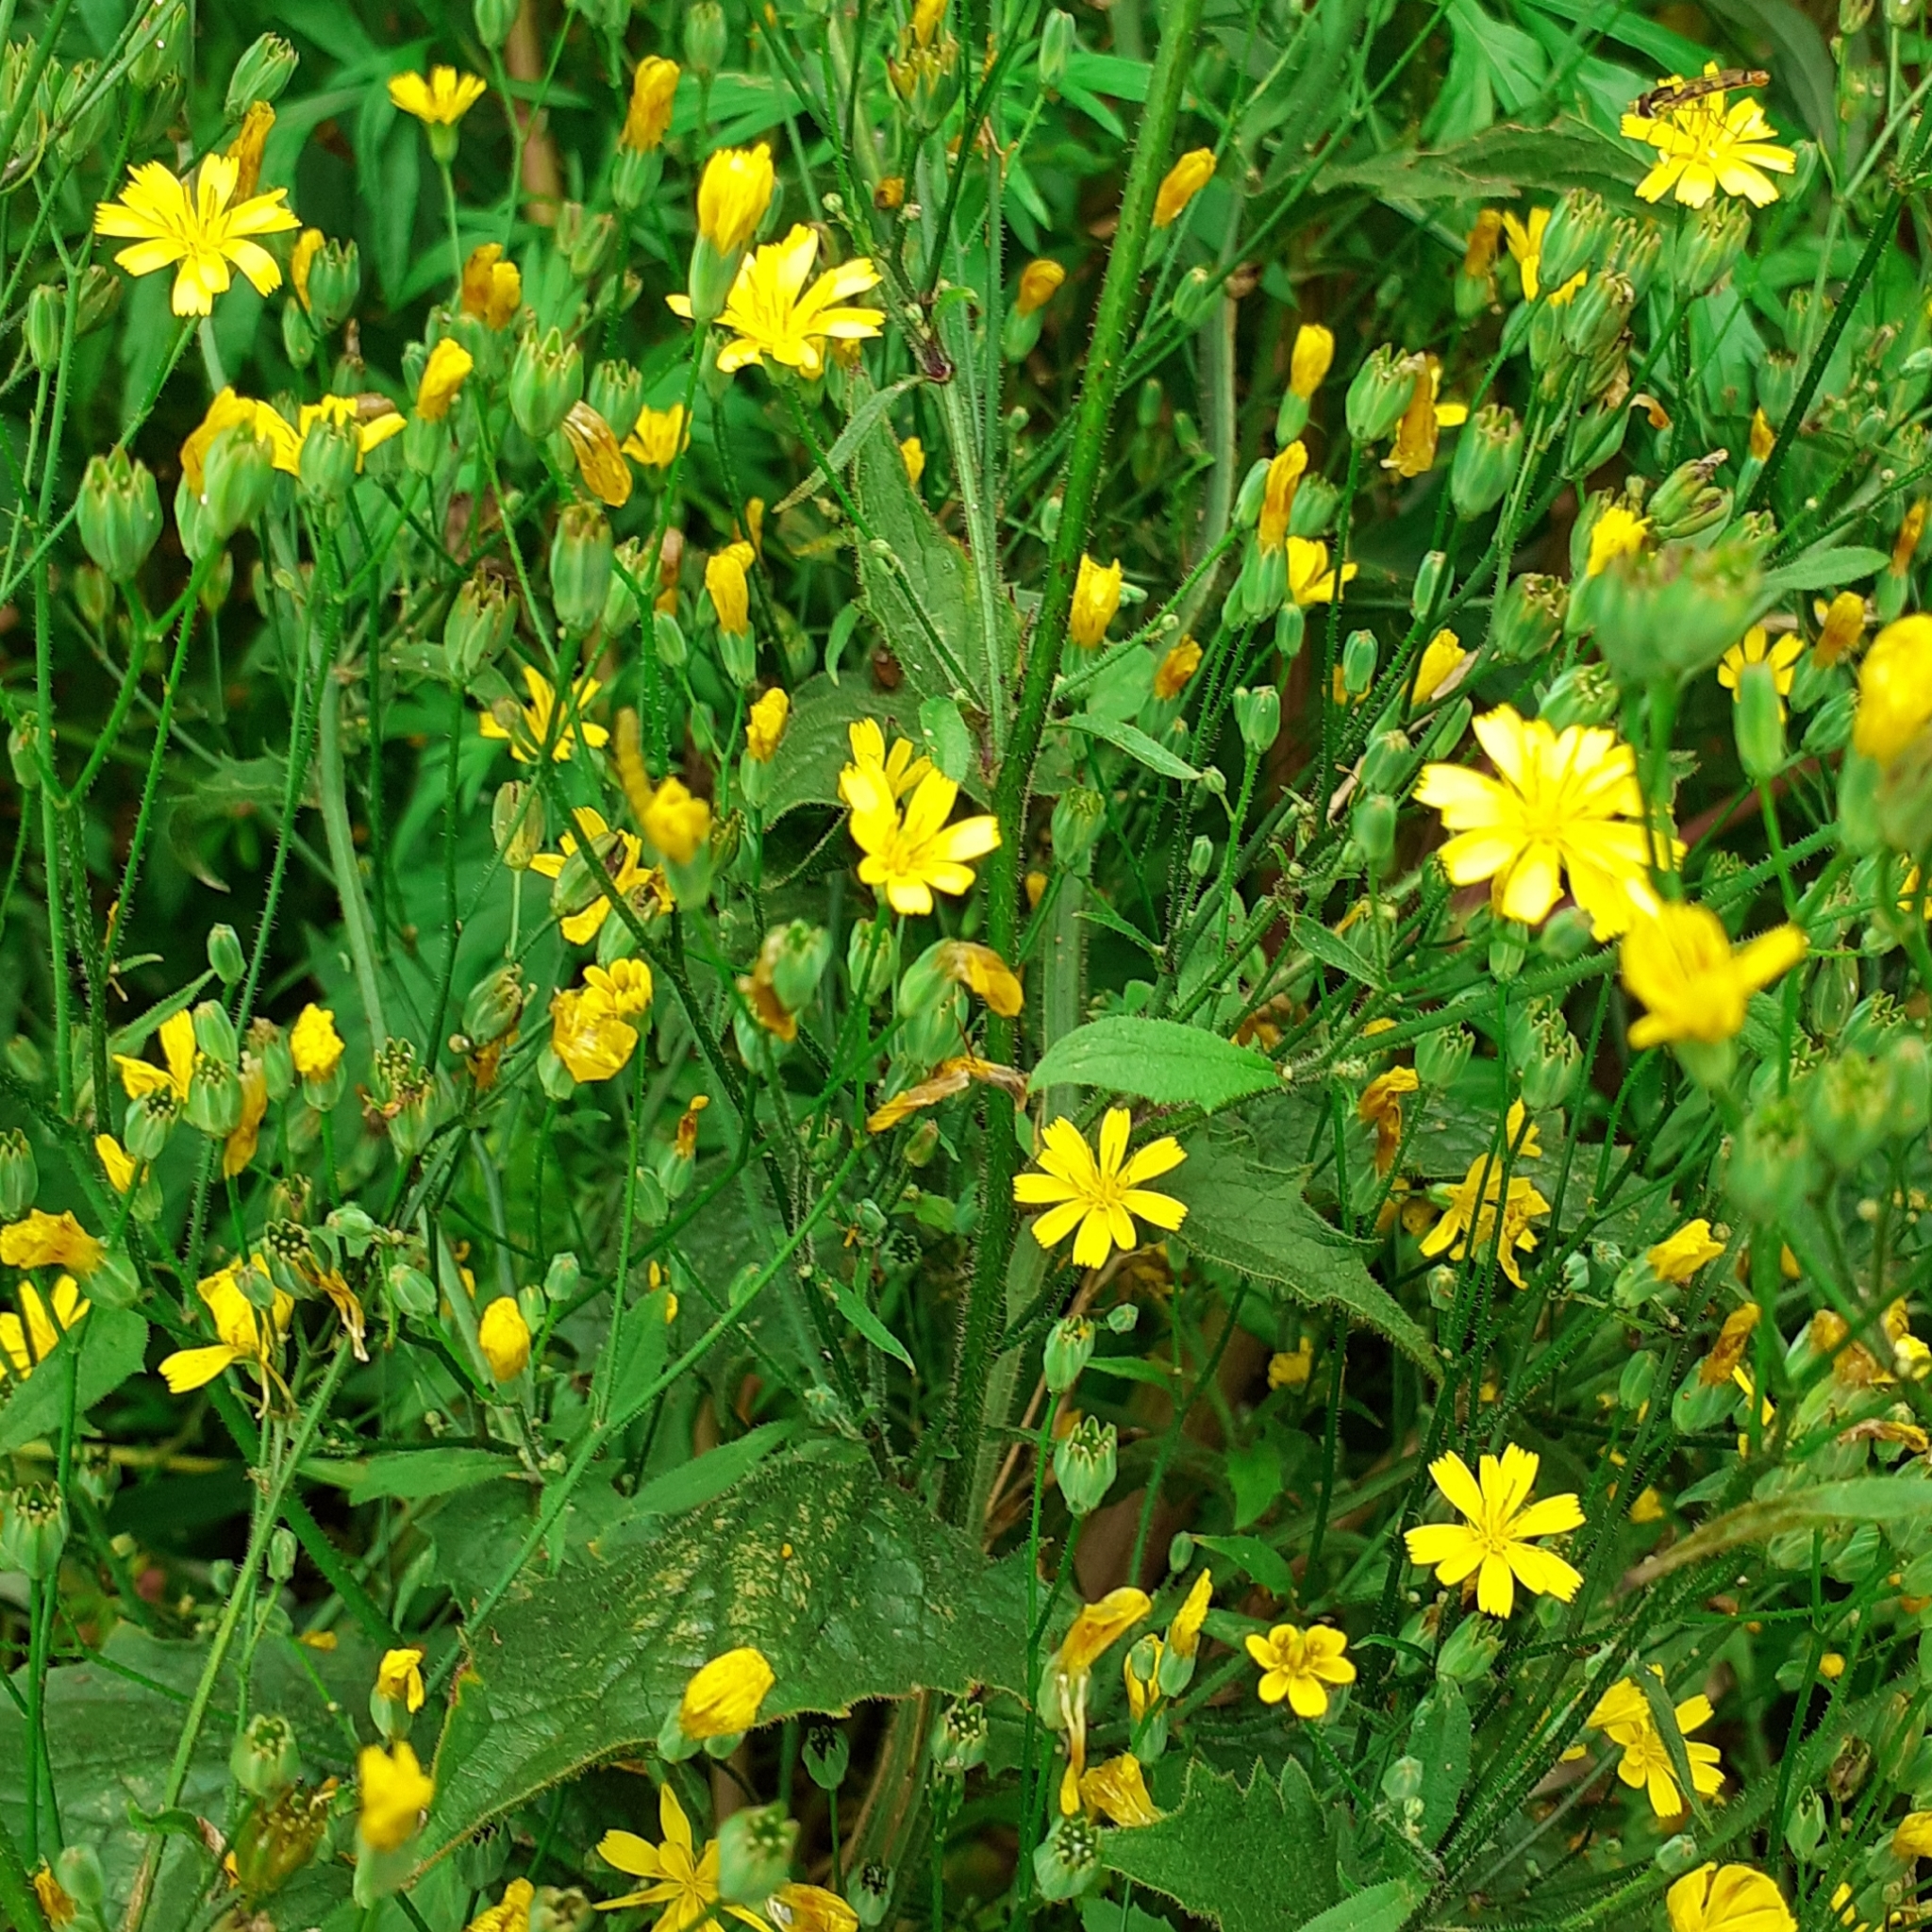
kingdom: Plantae
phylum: Tracheophyta
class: Magnoliopsida
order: Asterales
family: Asteraceae
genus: Lapsana
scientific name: Lapsana communis
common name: Nipplewort
